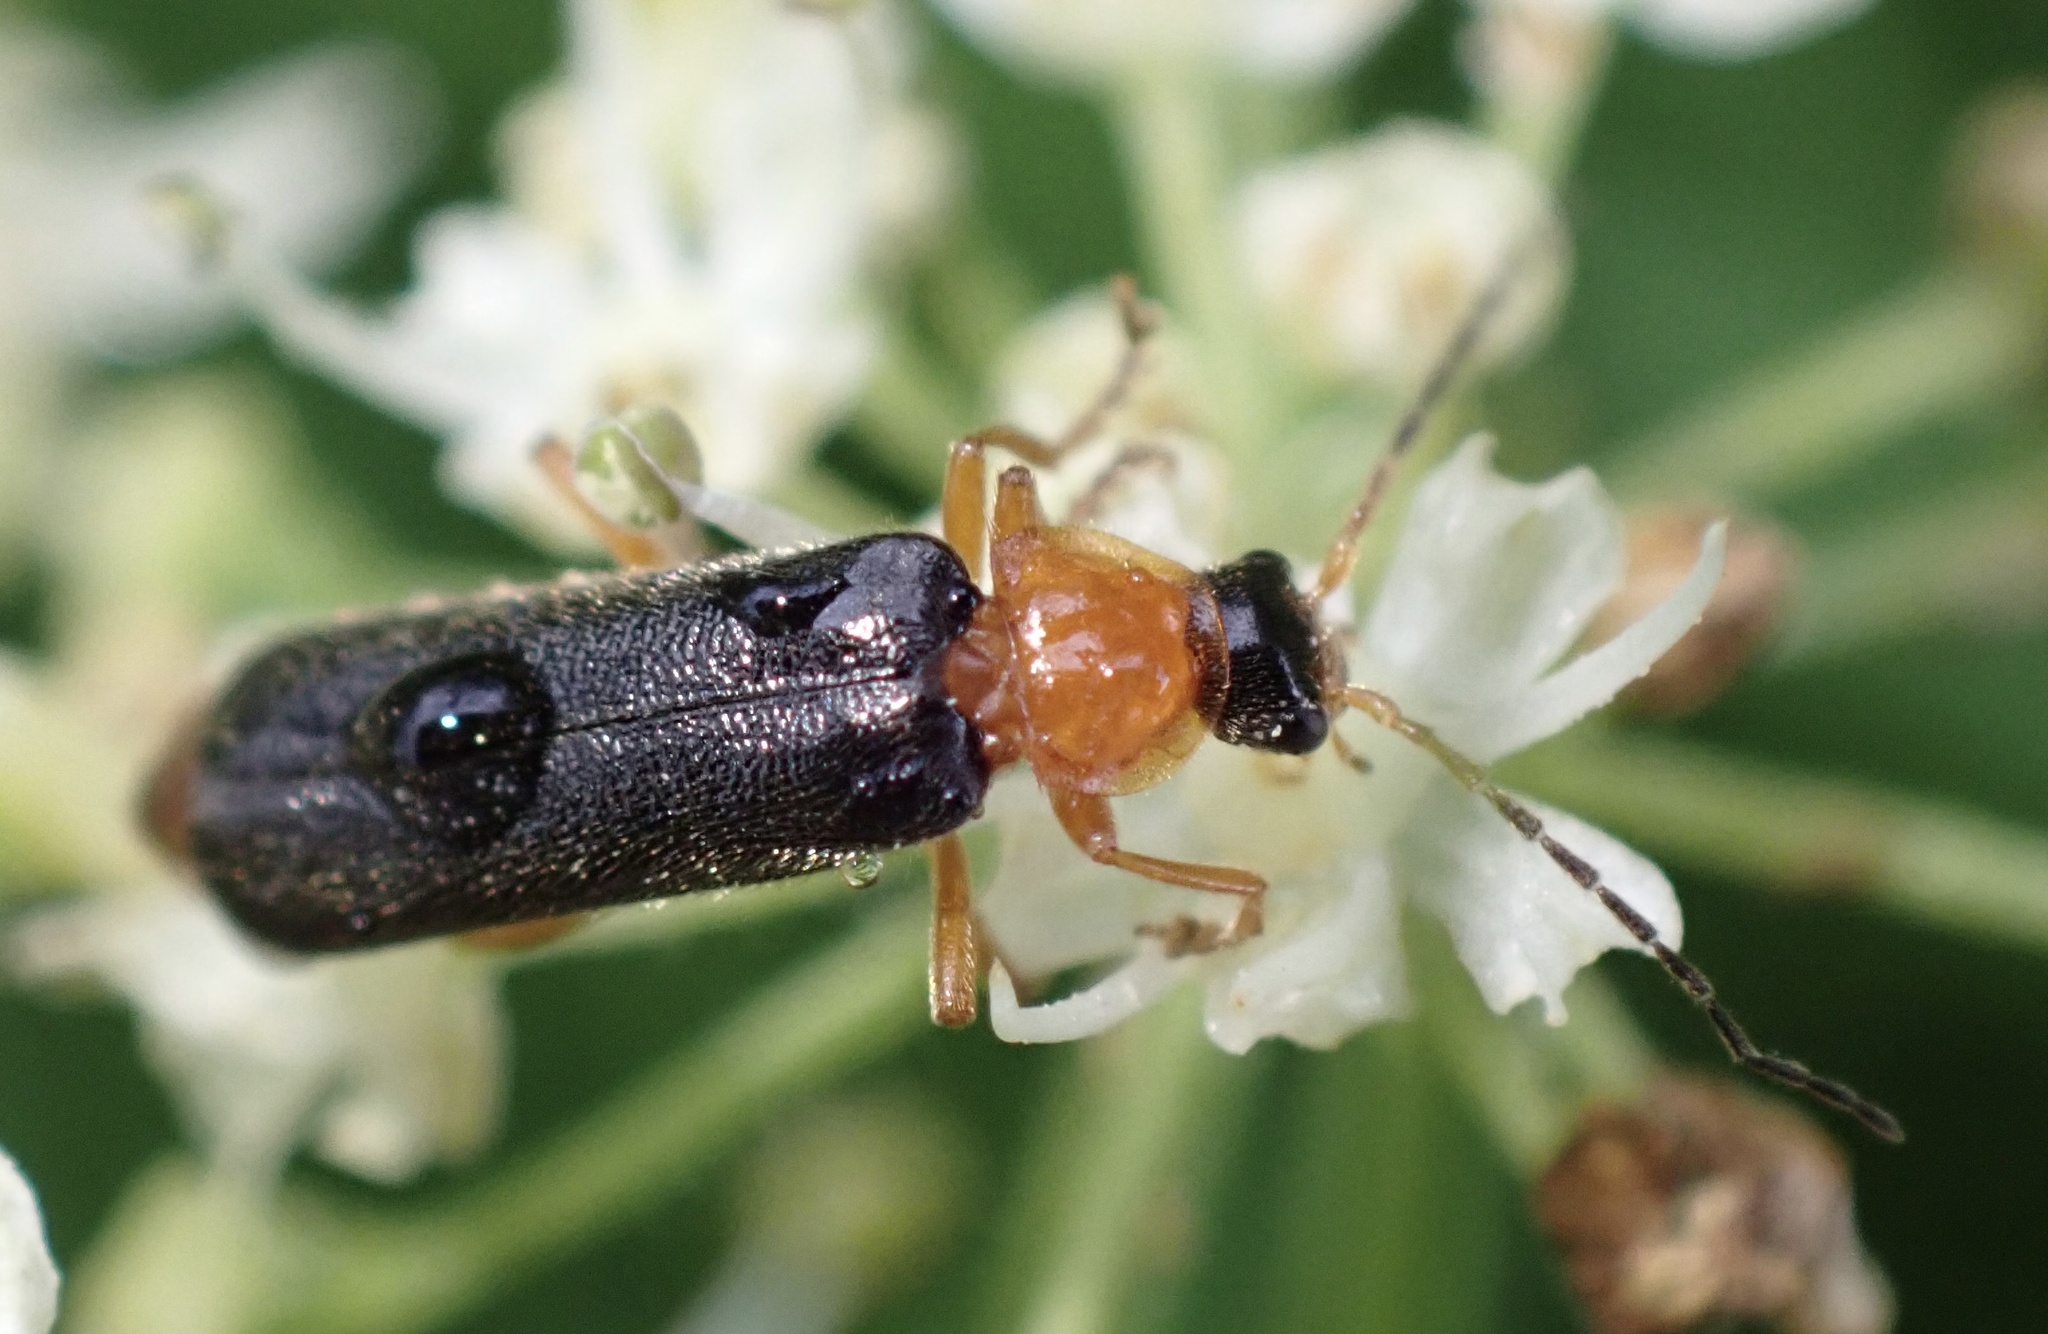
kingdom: Animalia
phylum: Arthropoda
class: Insecta
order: Coleoptera
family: Cantharidae
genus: Cantharis
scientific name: Cantharis nigra
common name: Cantharid beetle
